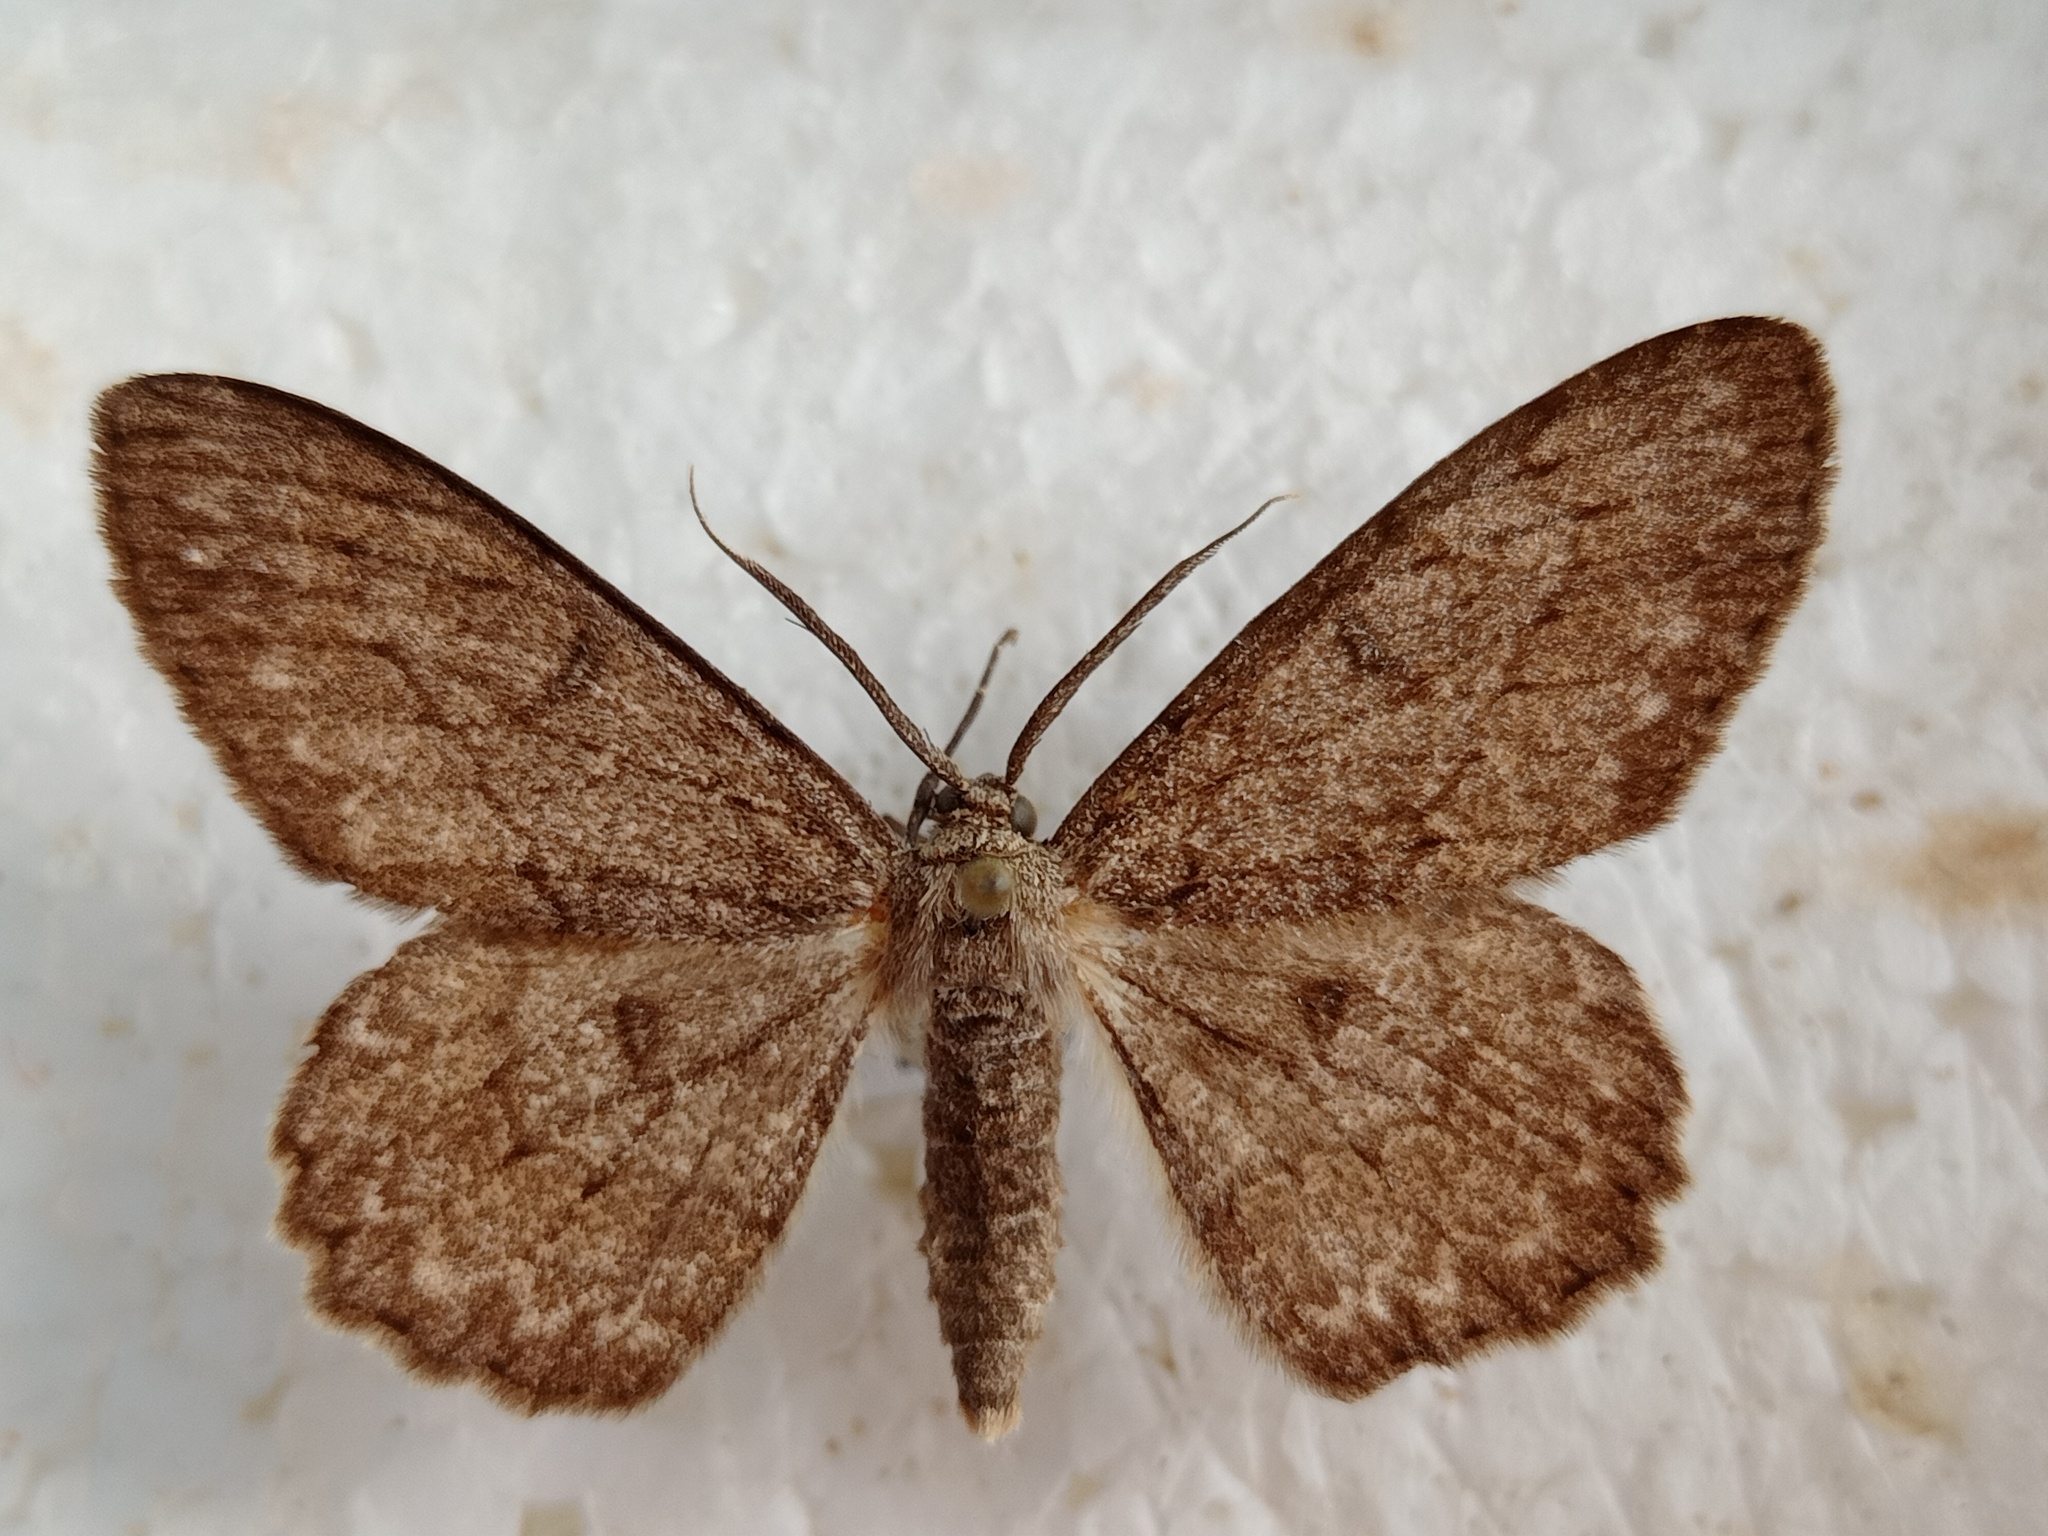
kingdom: Animalia
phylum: Arthropoda
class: Insecta
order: Lepidoptera
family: Geometridae
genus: Hypomecis
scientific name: Hypomecis punctinalis
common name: Pale oak beauty
